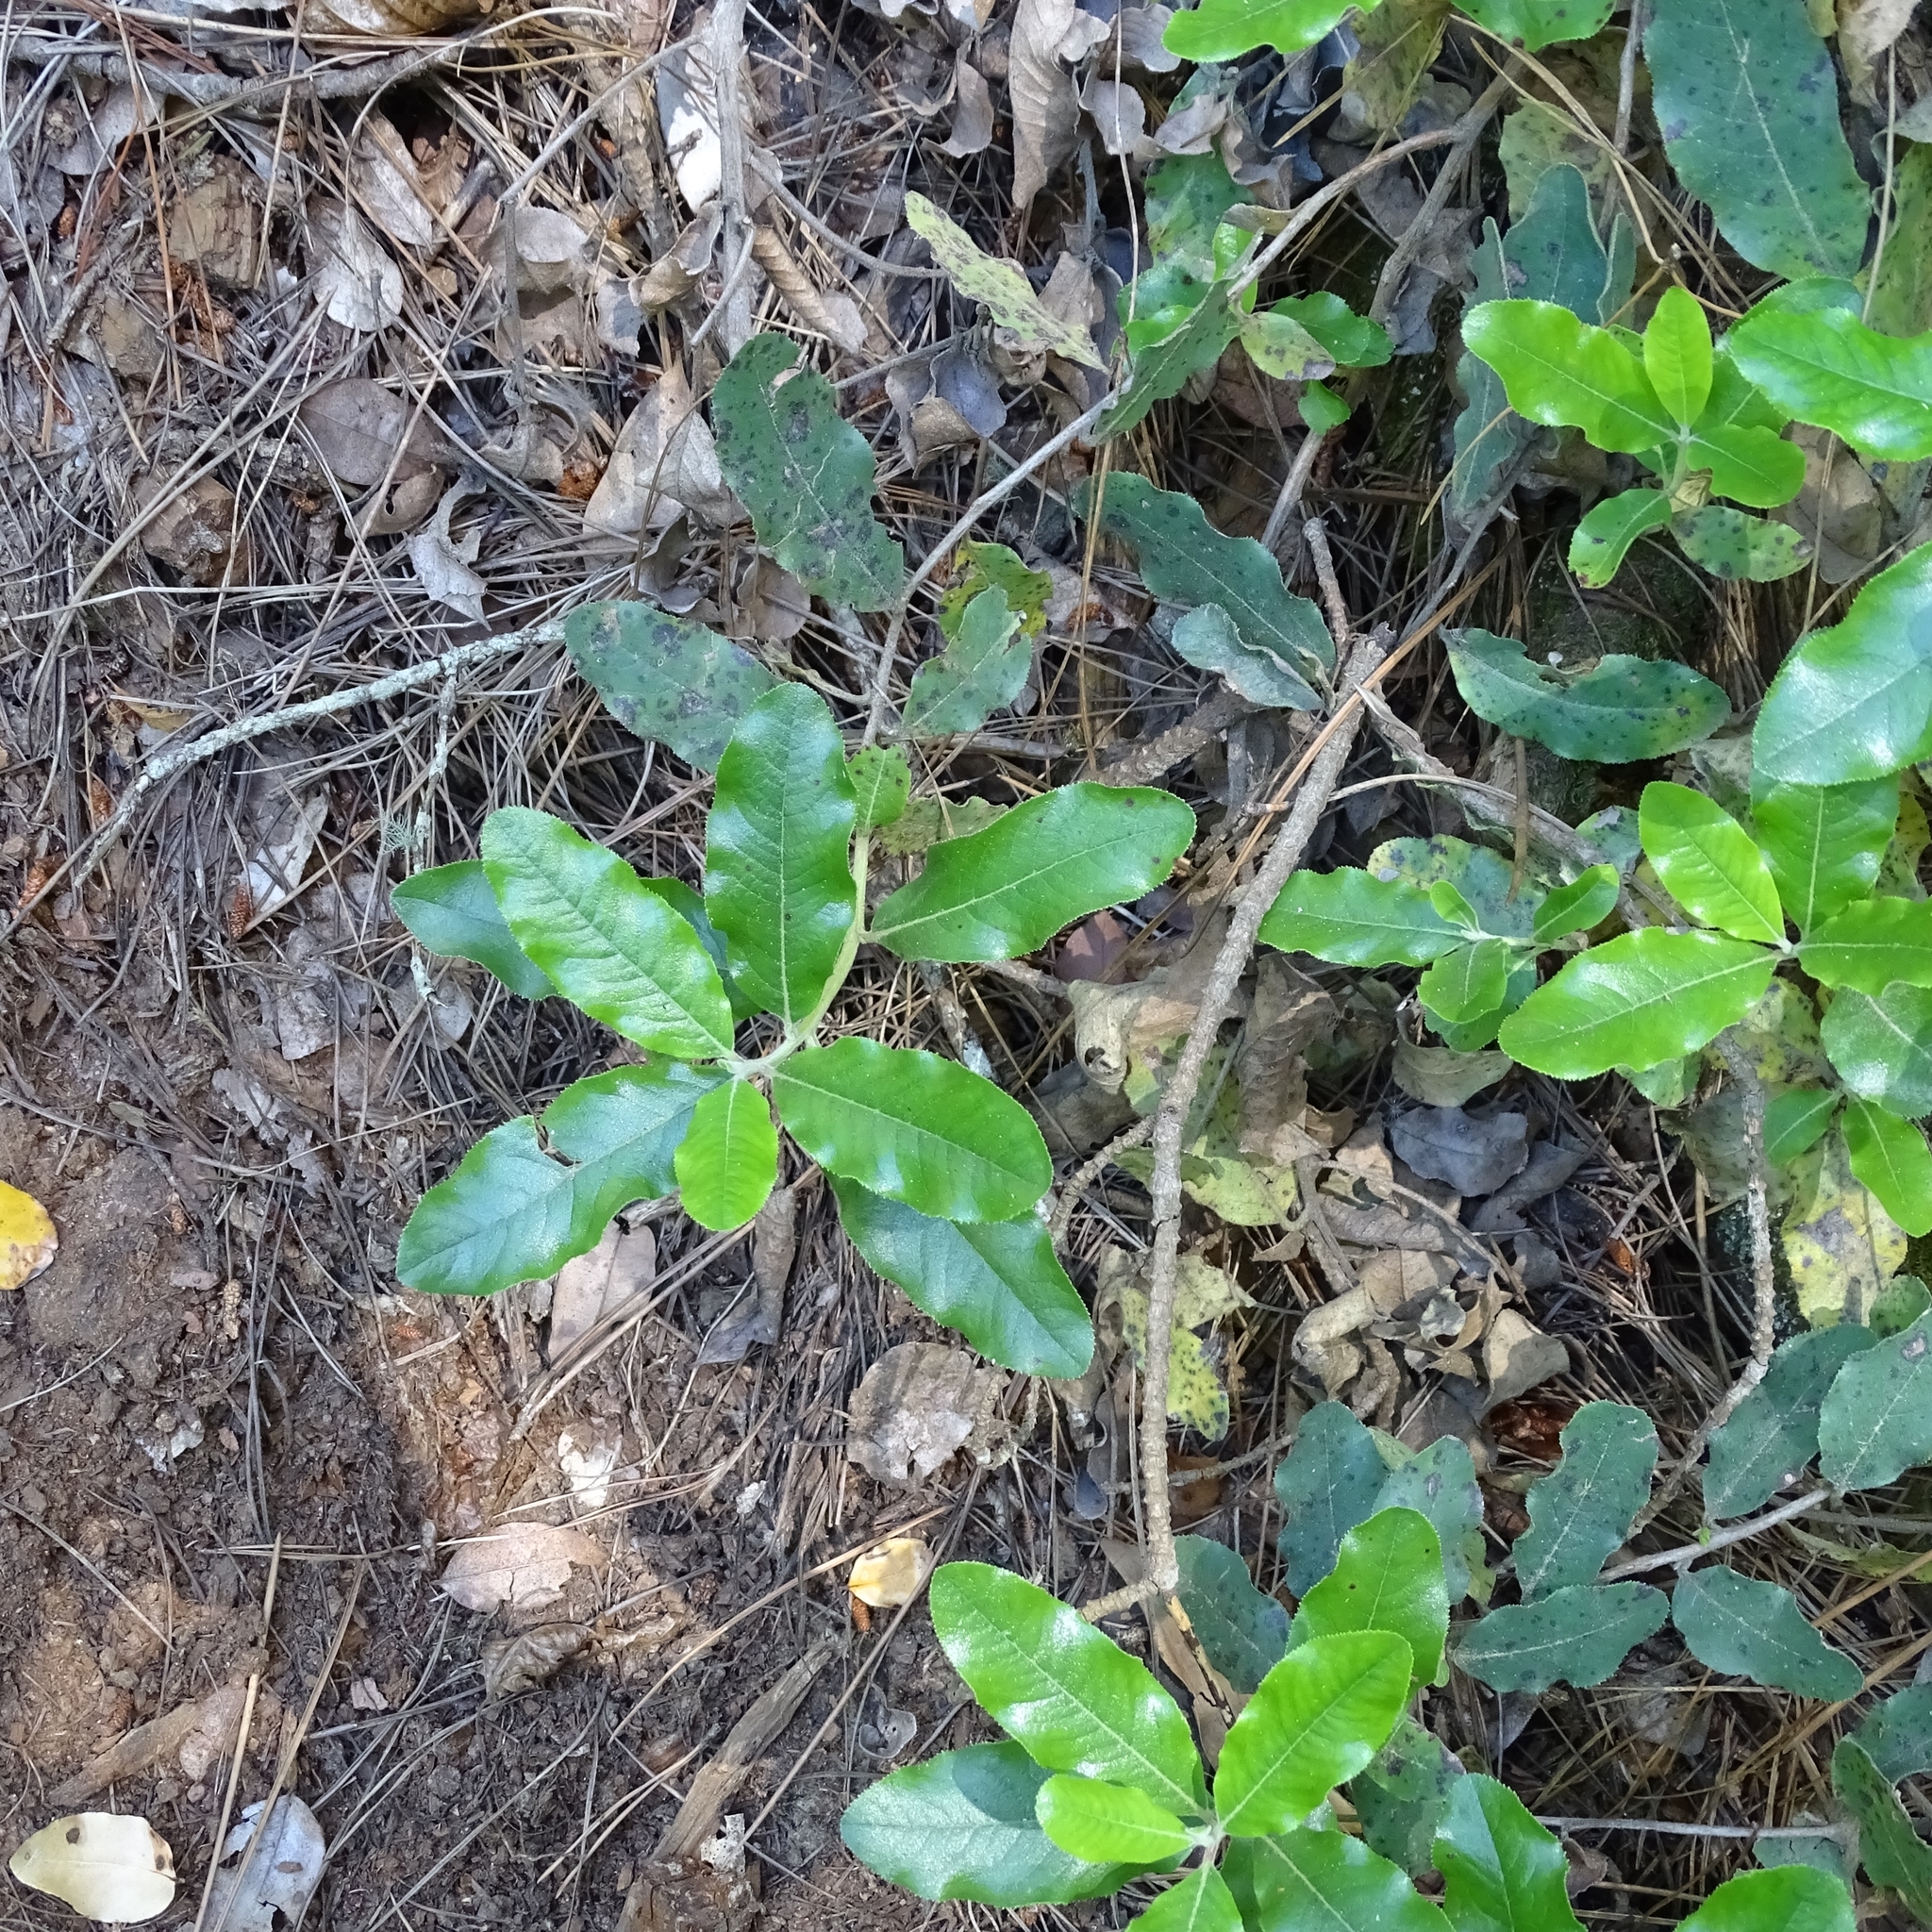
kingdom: Plantae
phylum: Tracheophyta
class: Magnoliopsida
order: Escalloniales
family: Escalloniaceae
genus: Escallonia
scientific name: Escallonia pulverulenta
